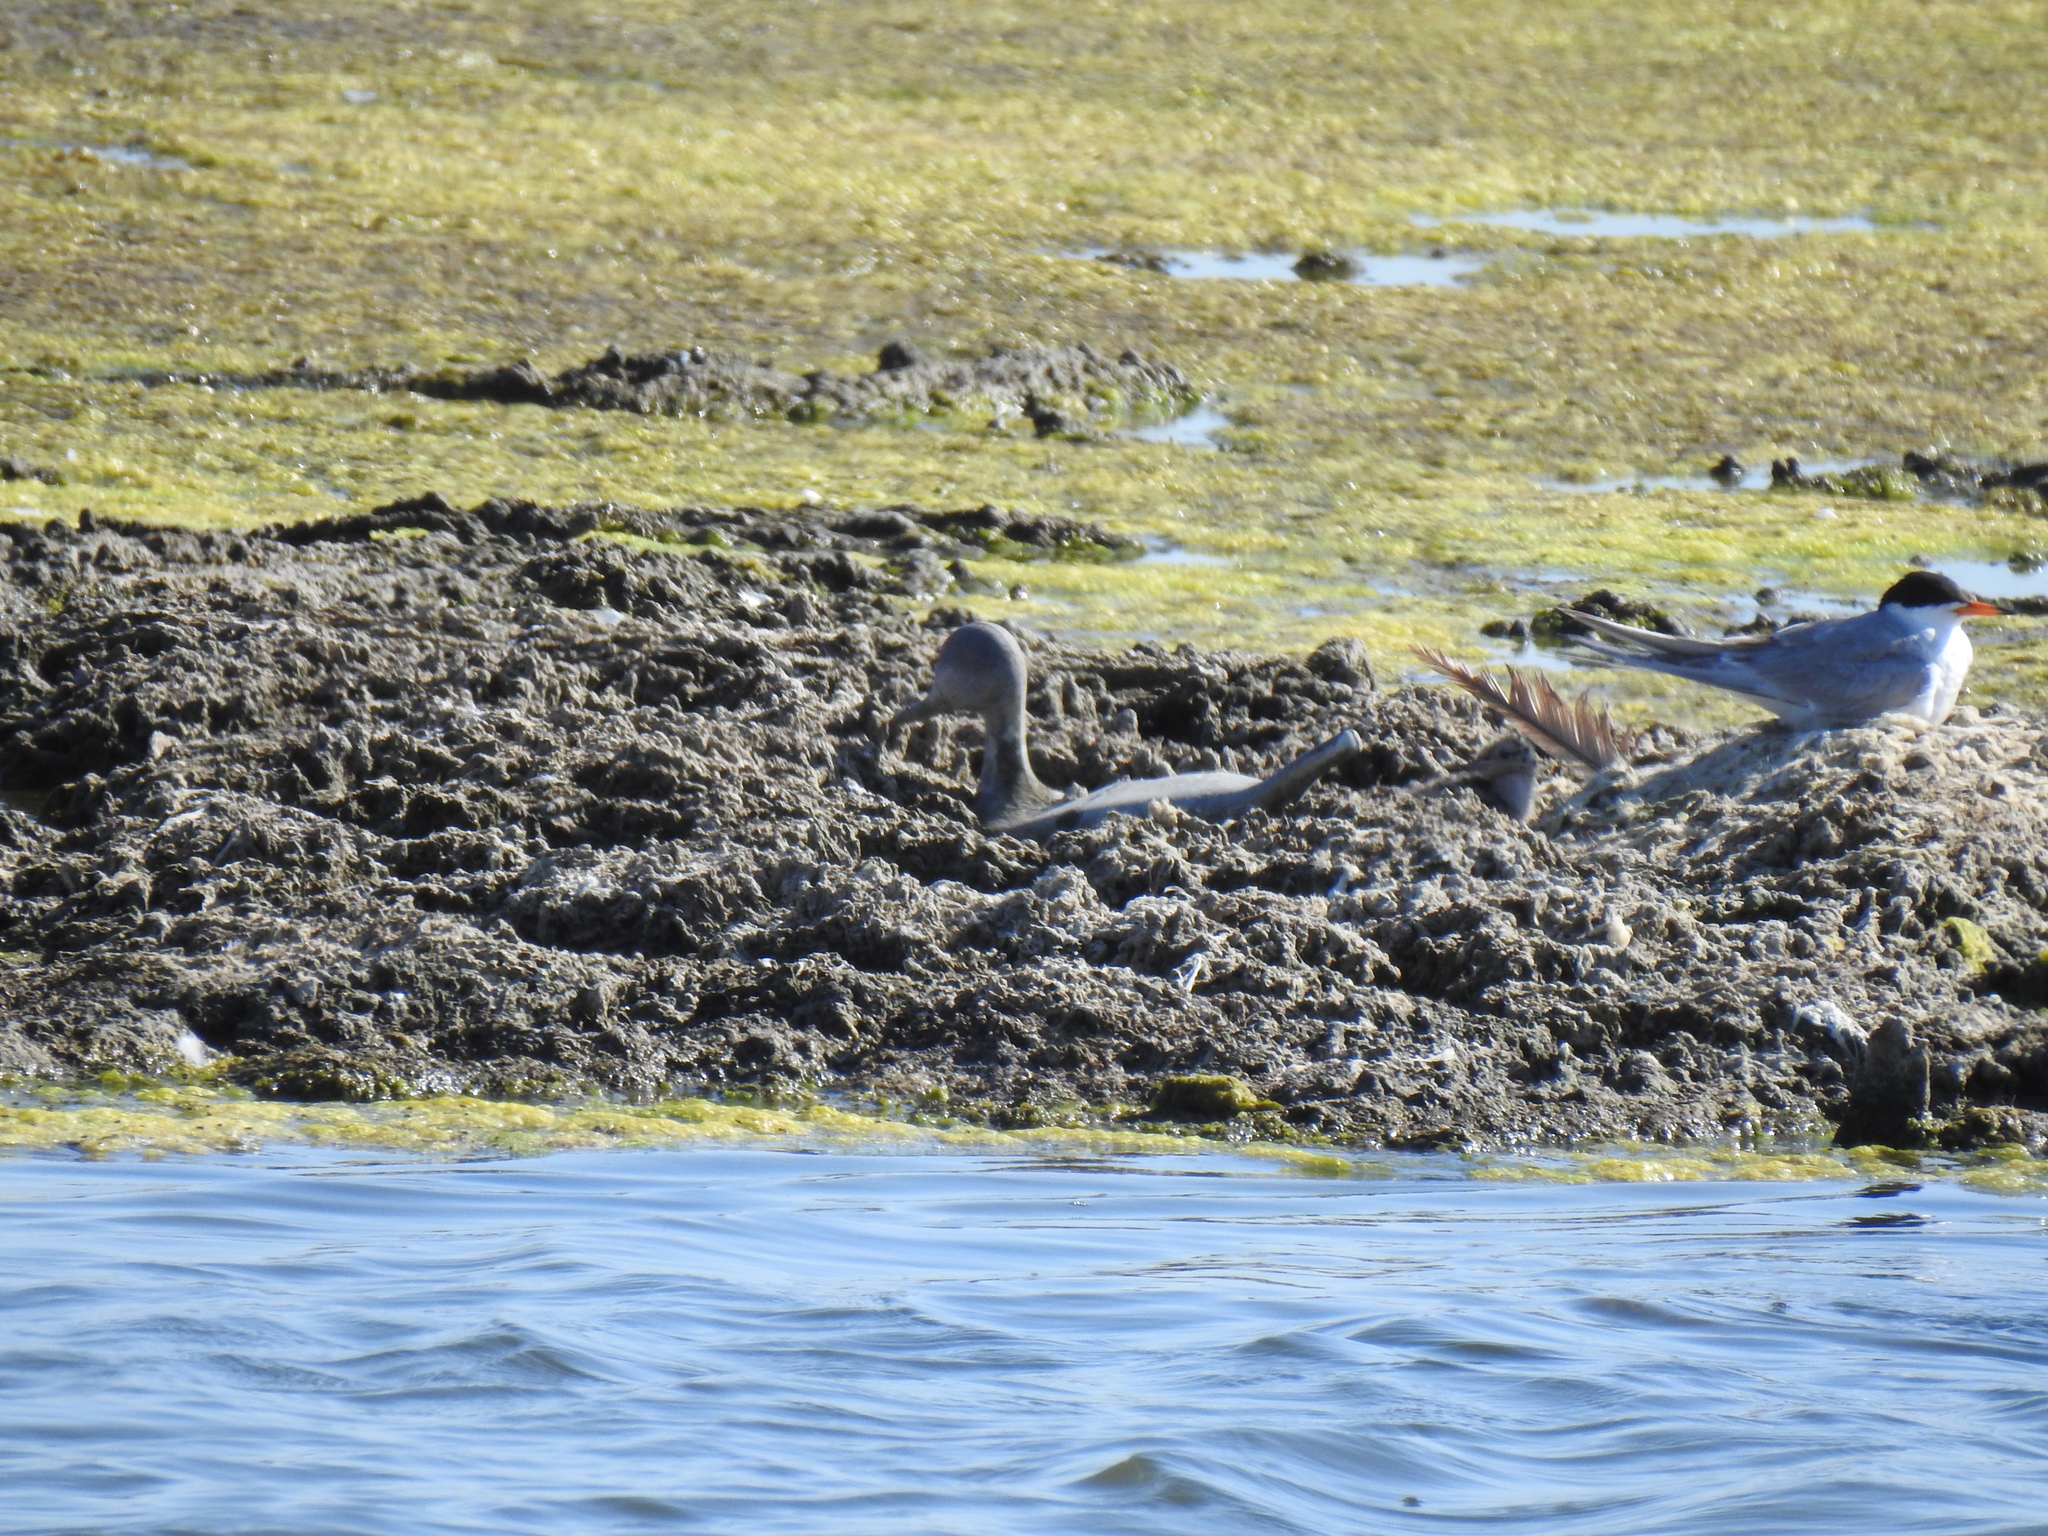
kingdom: Animalia
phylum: Chordata
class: Aves
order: Charadriiformes
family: Laridae
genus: Sterna
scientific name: Sterna forsteri
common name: Forster's tern
